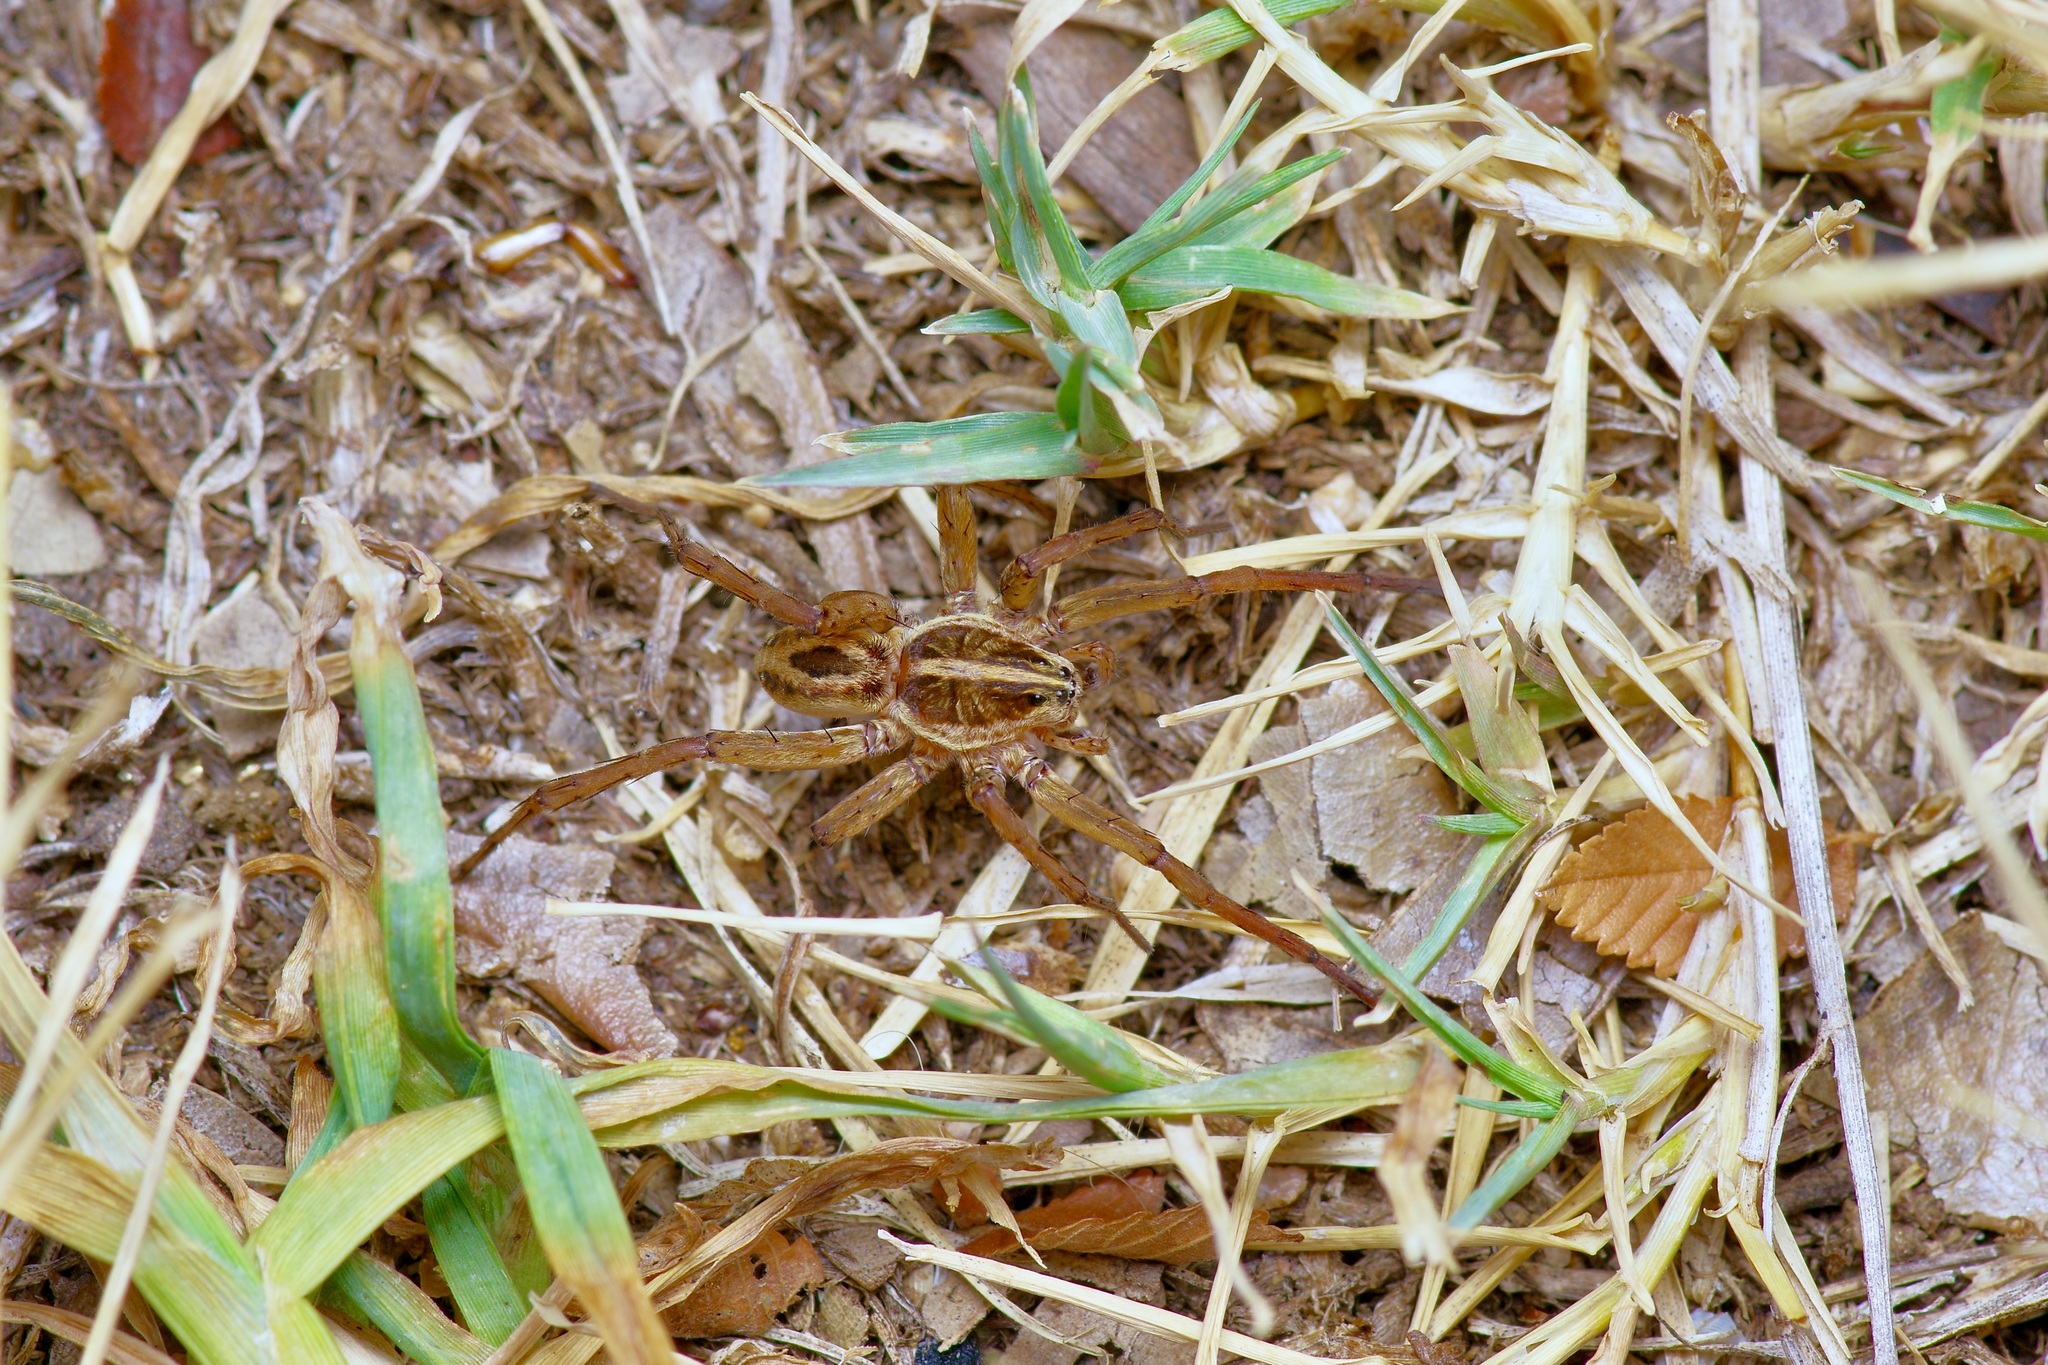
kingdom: Animalia
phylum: Arthropoda
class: Arachnida
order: Araneae
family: Lycosidae
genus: Tigrosa
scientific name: Tigrosa annexa
